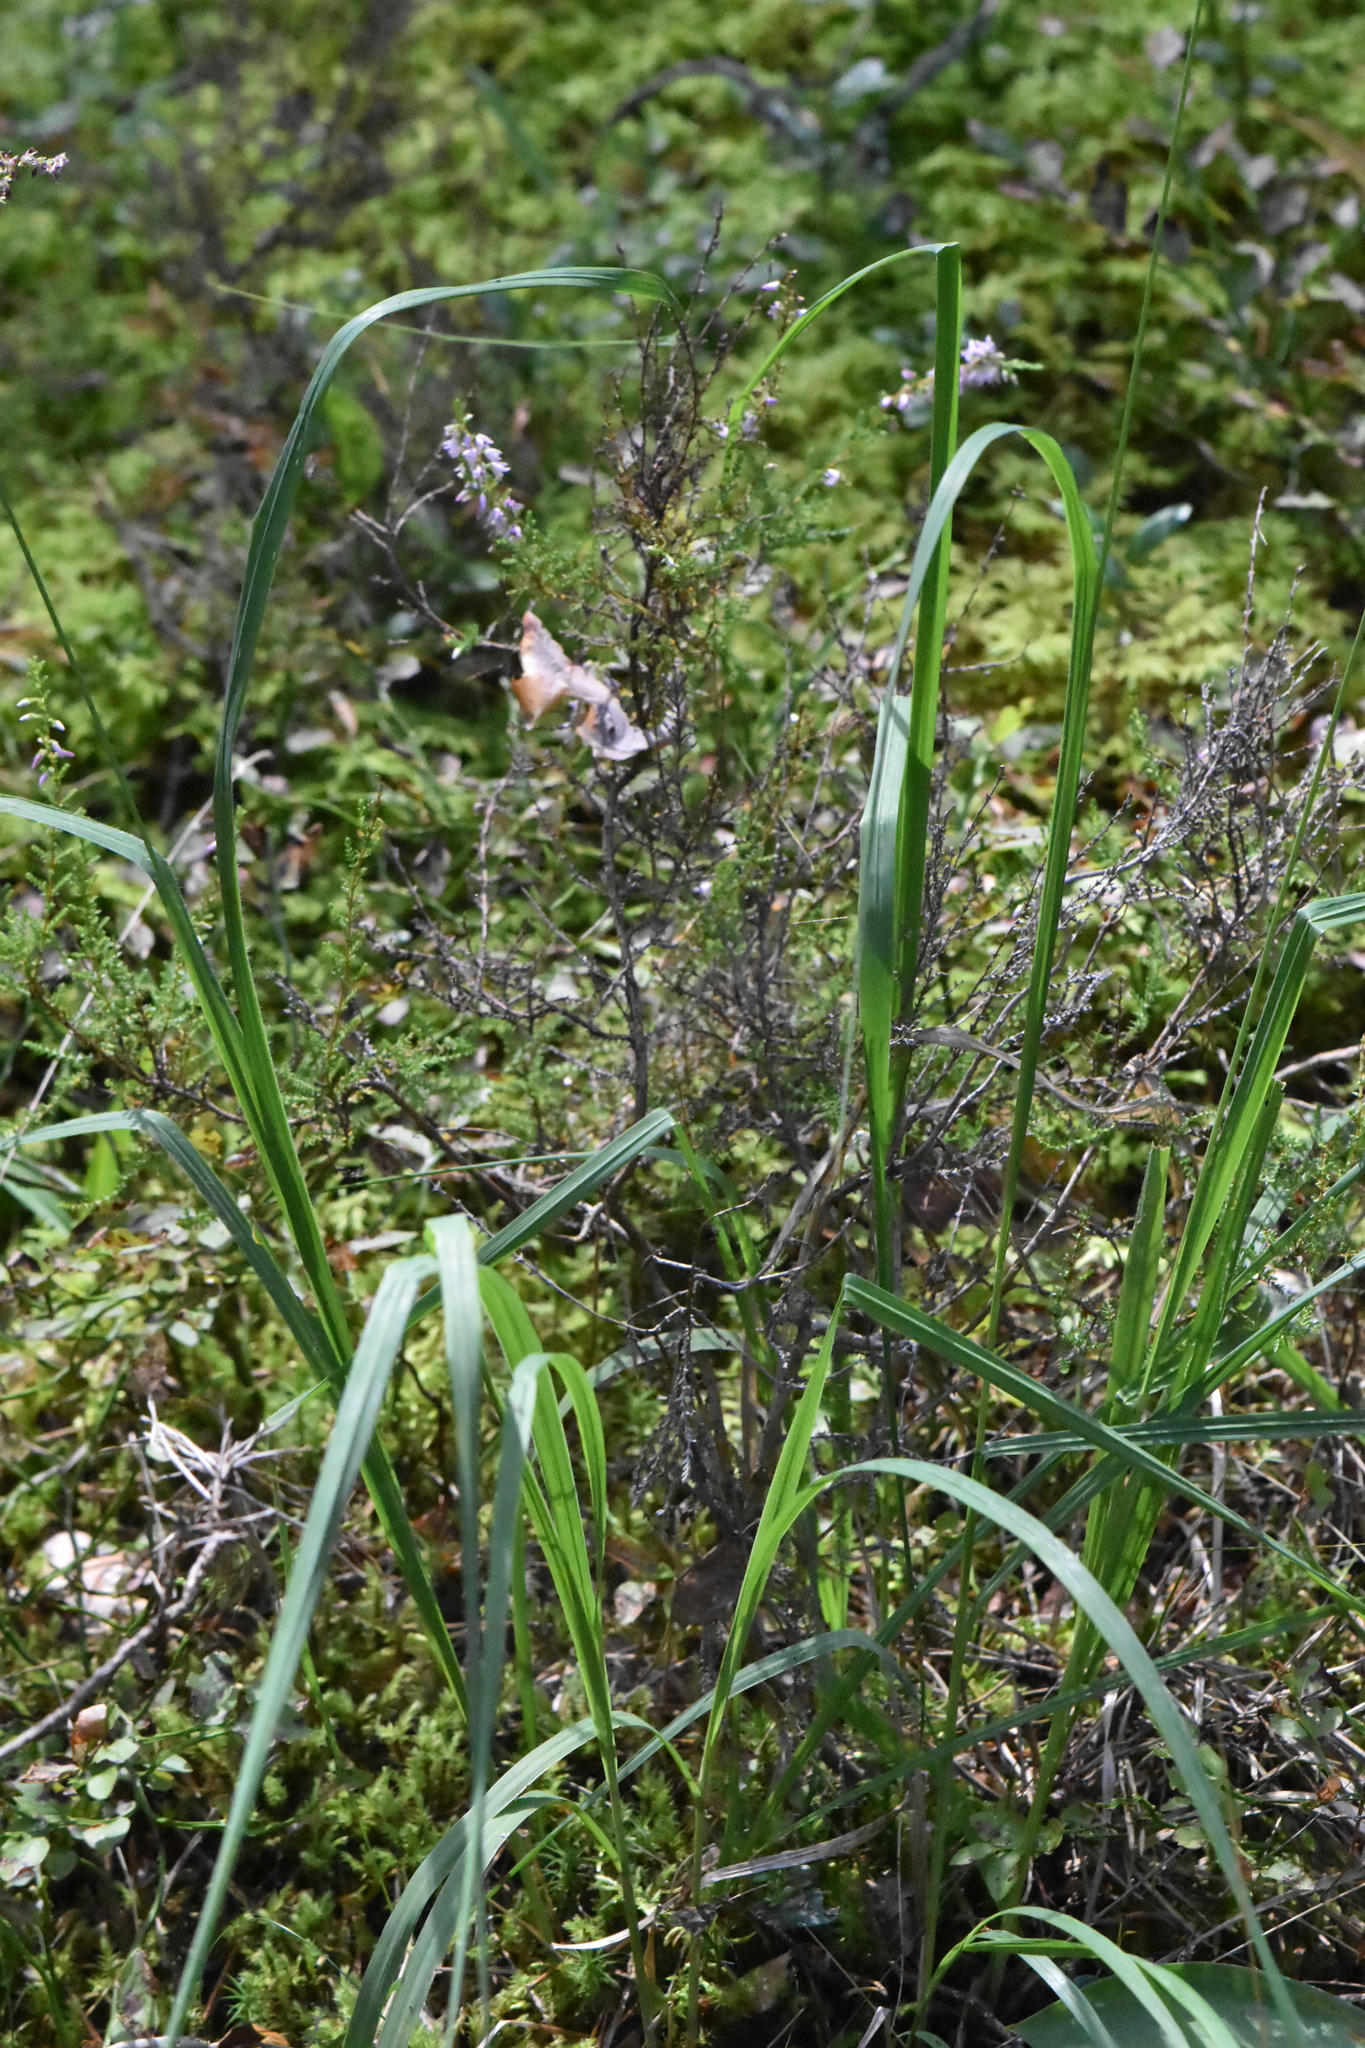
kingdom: Plantae
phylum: Tracheophyta
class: Liliopsida
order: Poales
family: Poaceae
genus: Molinia
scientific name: Molinia caerulea
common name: Purple moor-grass
